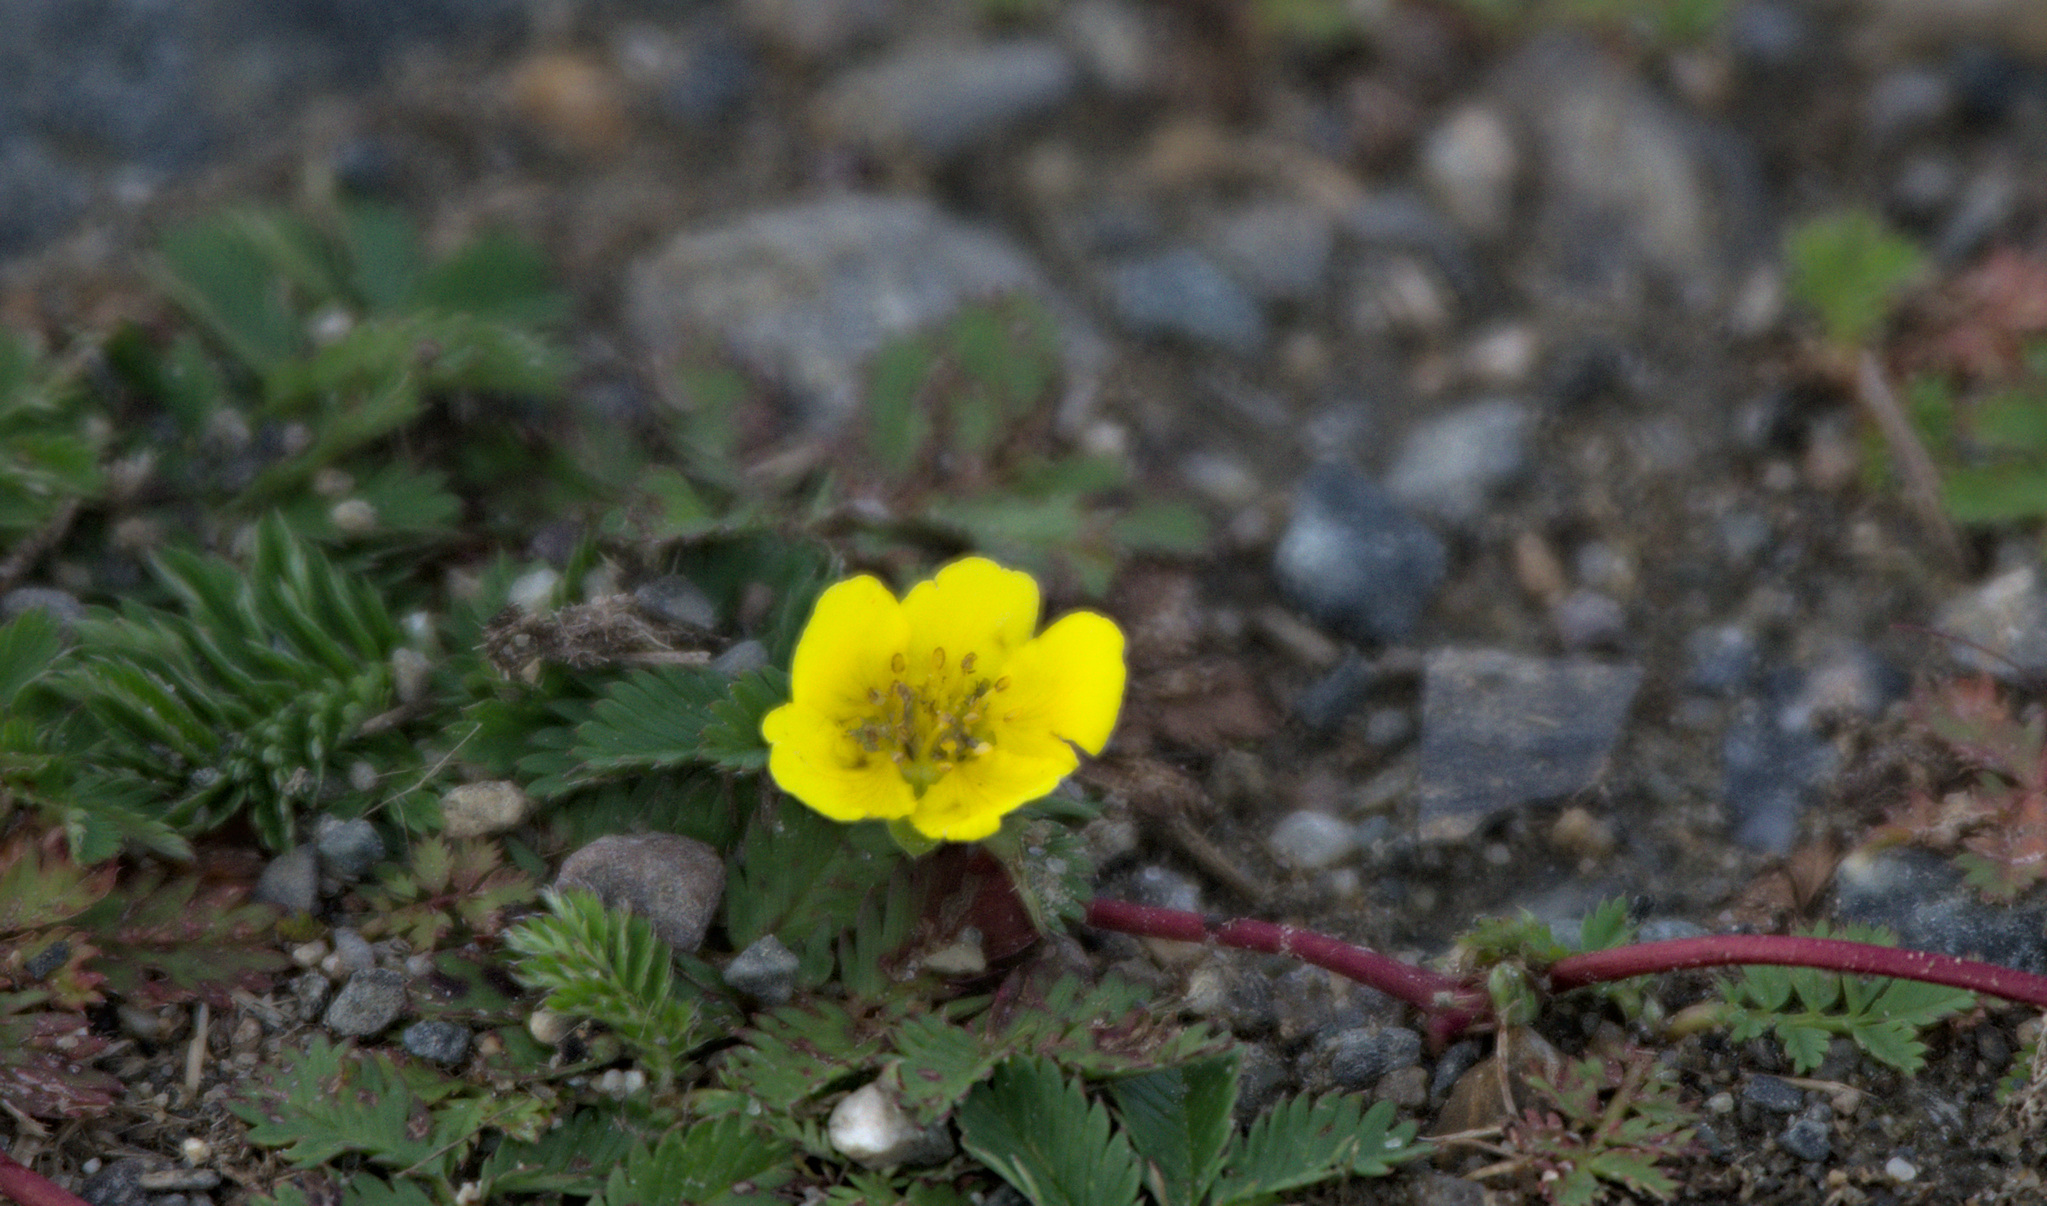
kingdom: Plantae
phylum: Tracheophyta
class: Magnoliopsida
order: Rosales
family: Rosaceae
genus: Argentina
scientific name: Argentina anserina
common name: Common silverweed
